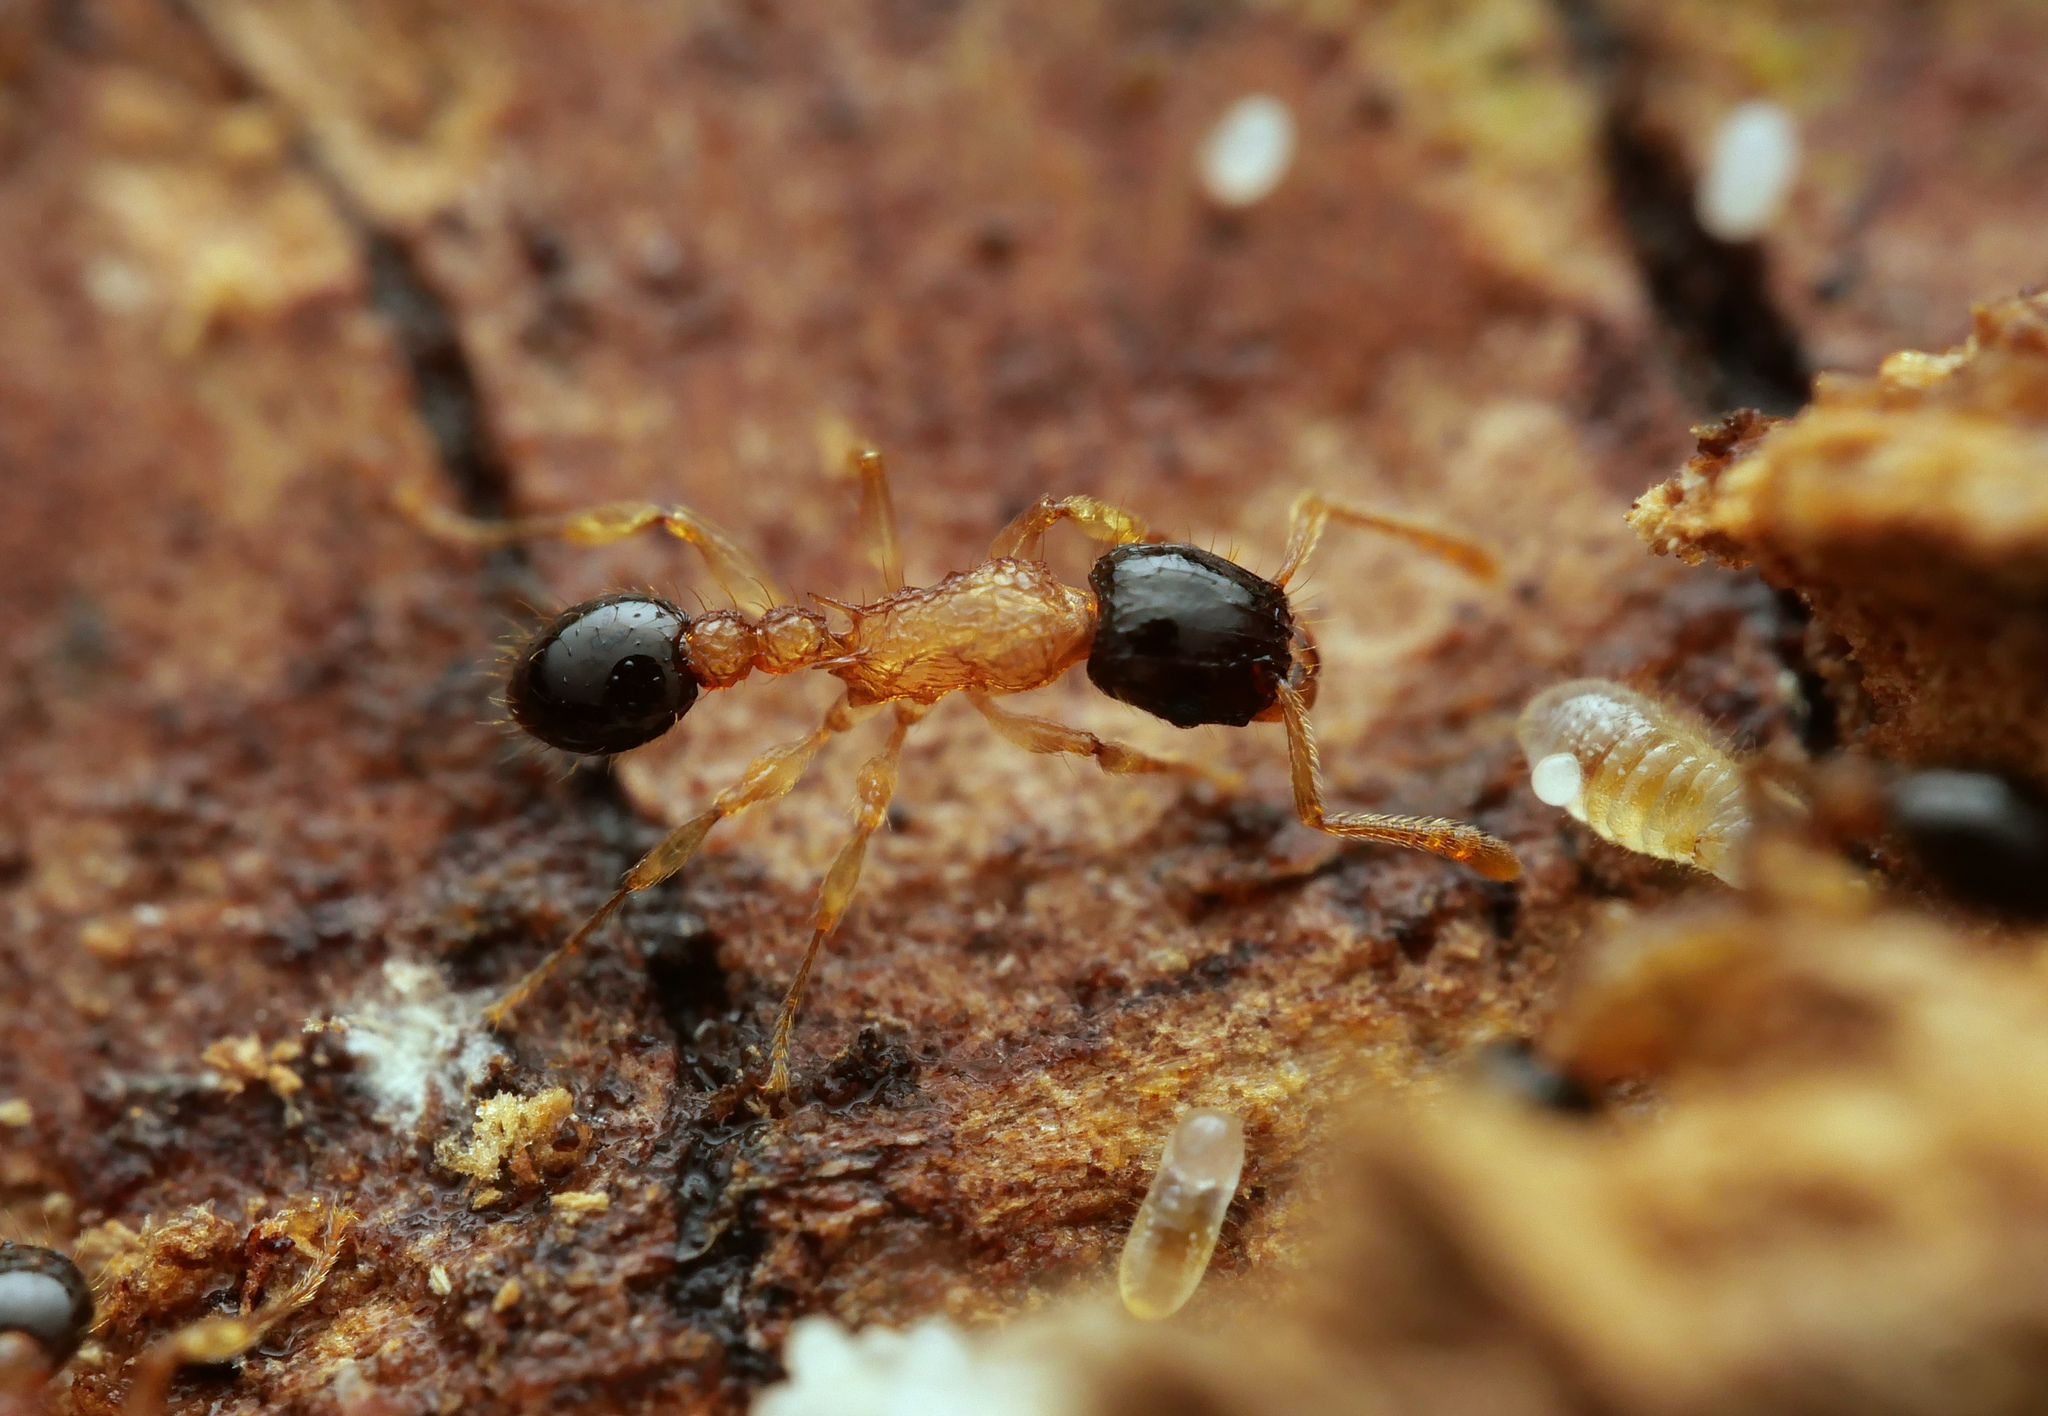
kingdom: Animalia
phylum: Arthropoda
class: Insecta
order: Hymenoptera
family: Formicidae
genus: Tetramorium
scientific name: Tetramorium bicolor
